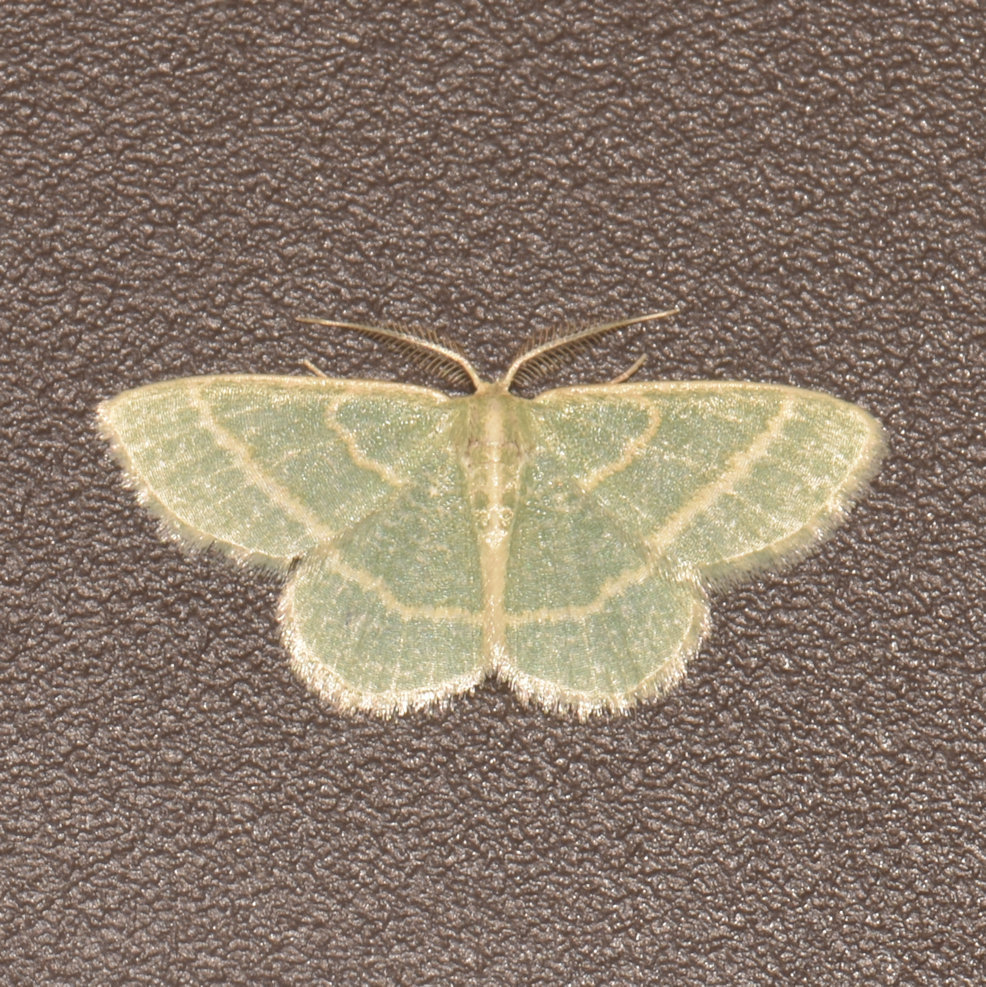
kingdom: Animalia
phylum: Arthropoda
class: Insecta
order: Lepidoptera
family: Geometridae
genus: Chlorochlamys
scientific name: Chlorochlamys chloroleucaria
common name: Blackberry looper
